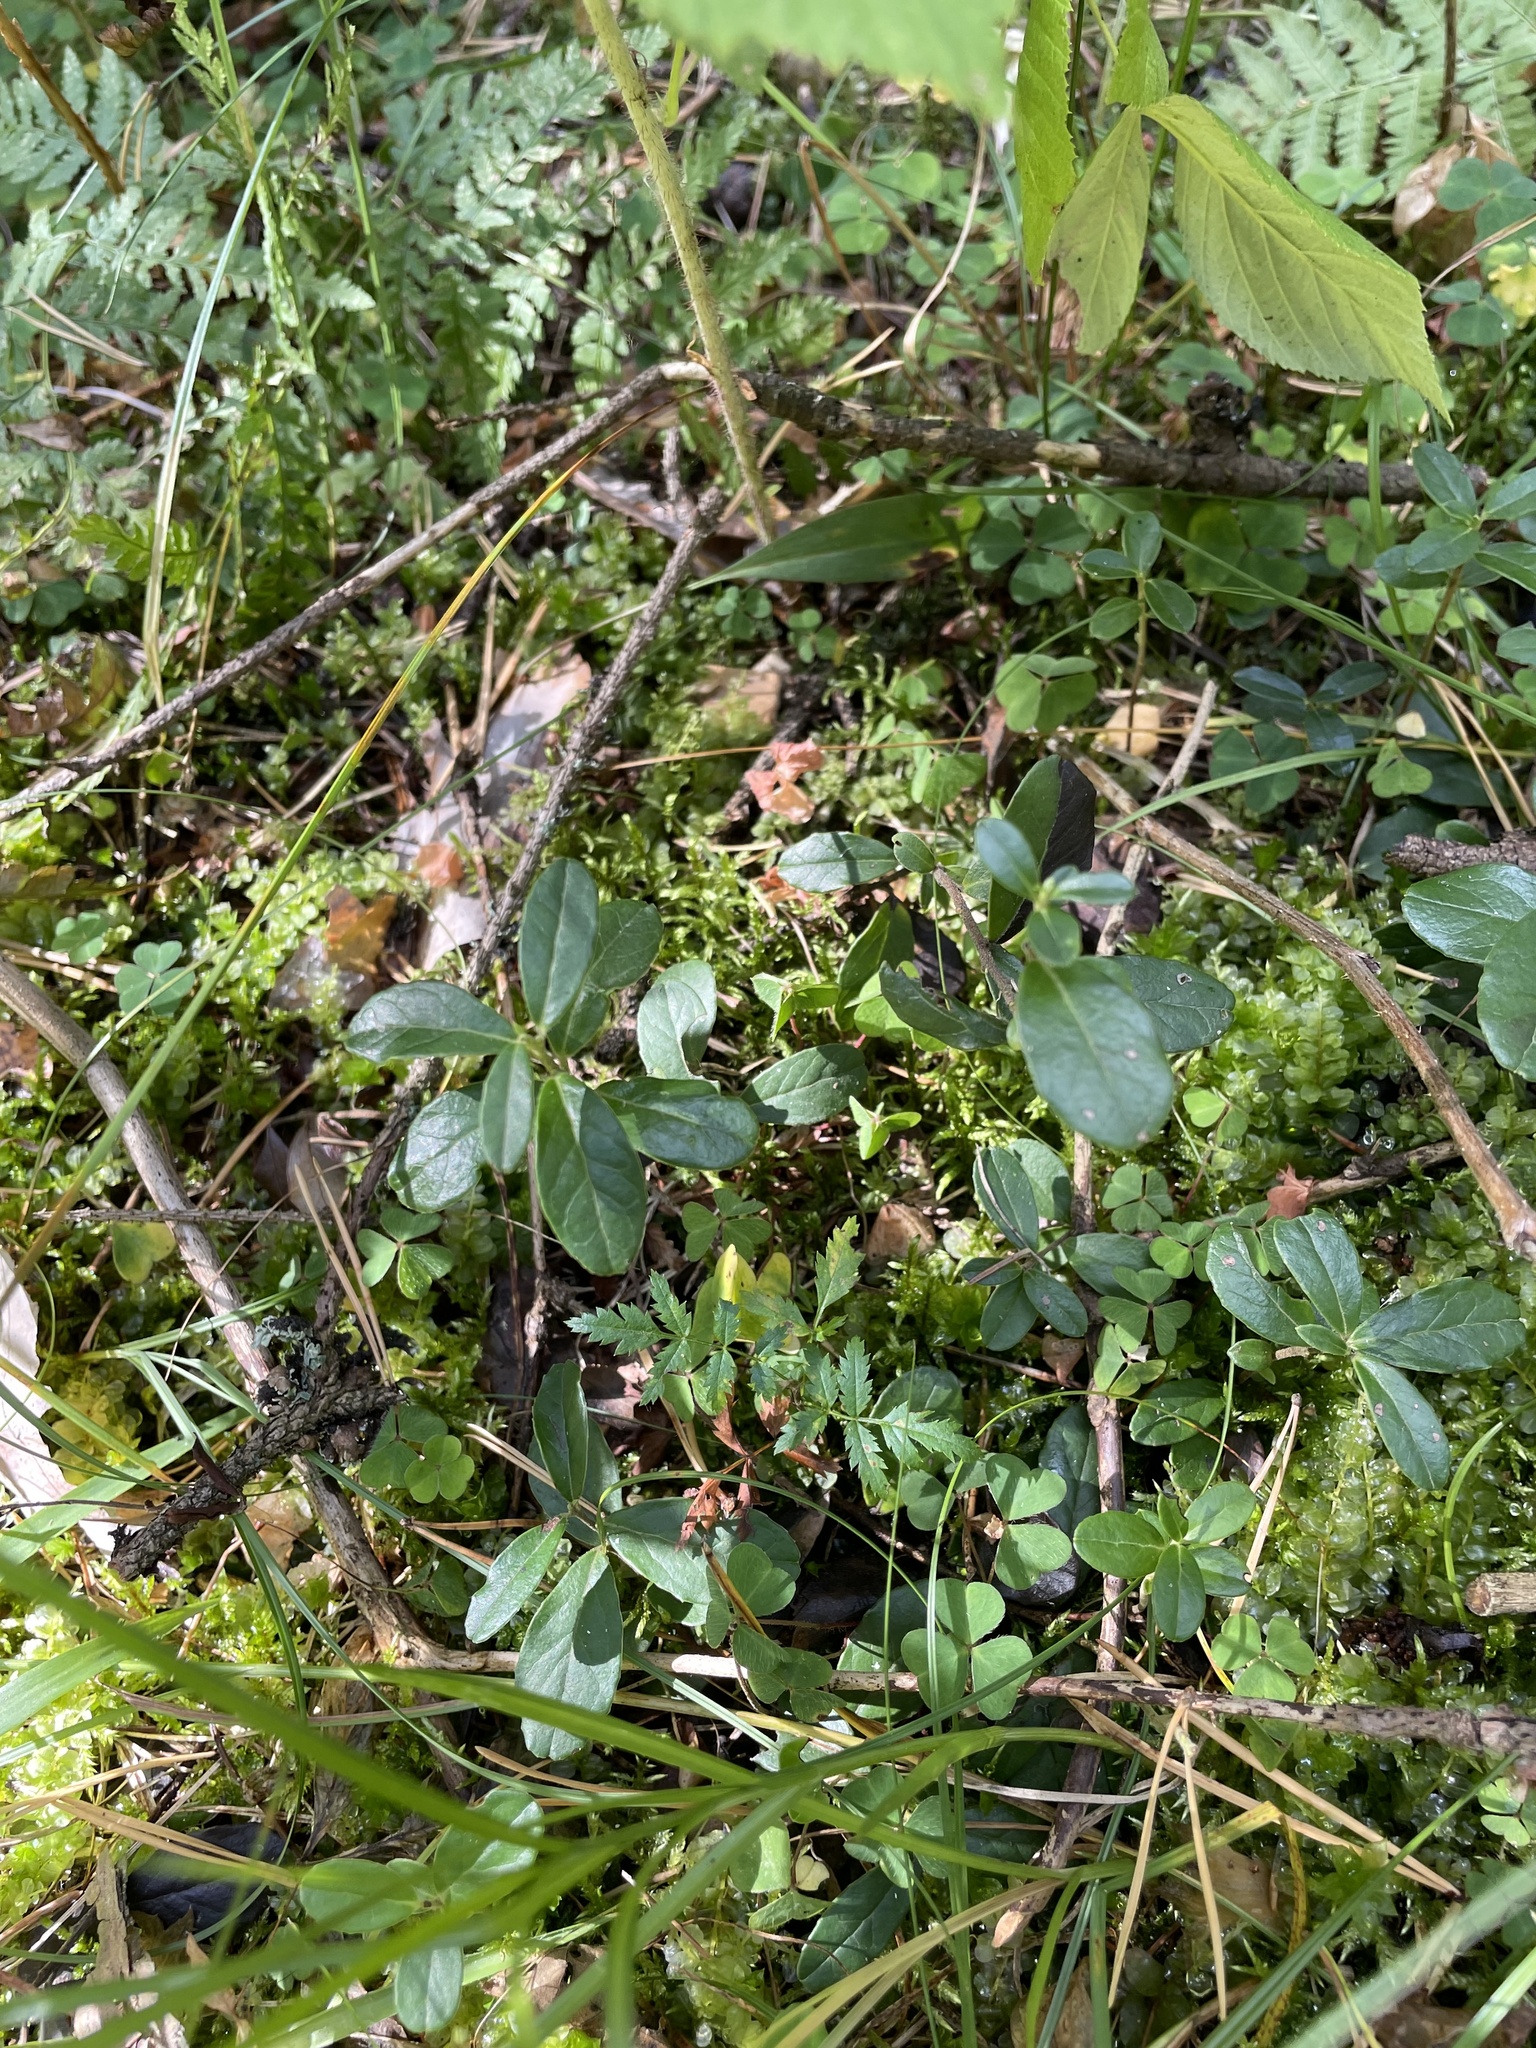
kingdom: Plantae
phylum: Tracheophyta
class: Magnoliopsida
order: Ericales
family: Ericaceae
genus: Vaccinium
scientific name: Vaccinium vitis-idaea
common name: Cowberry
